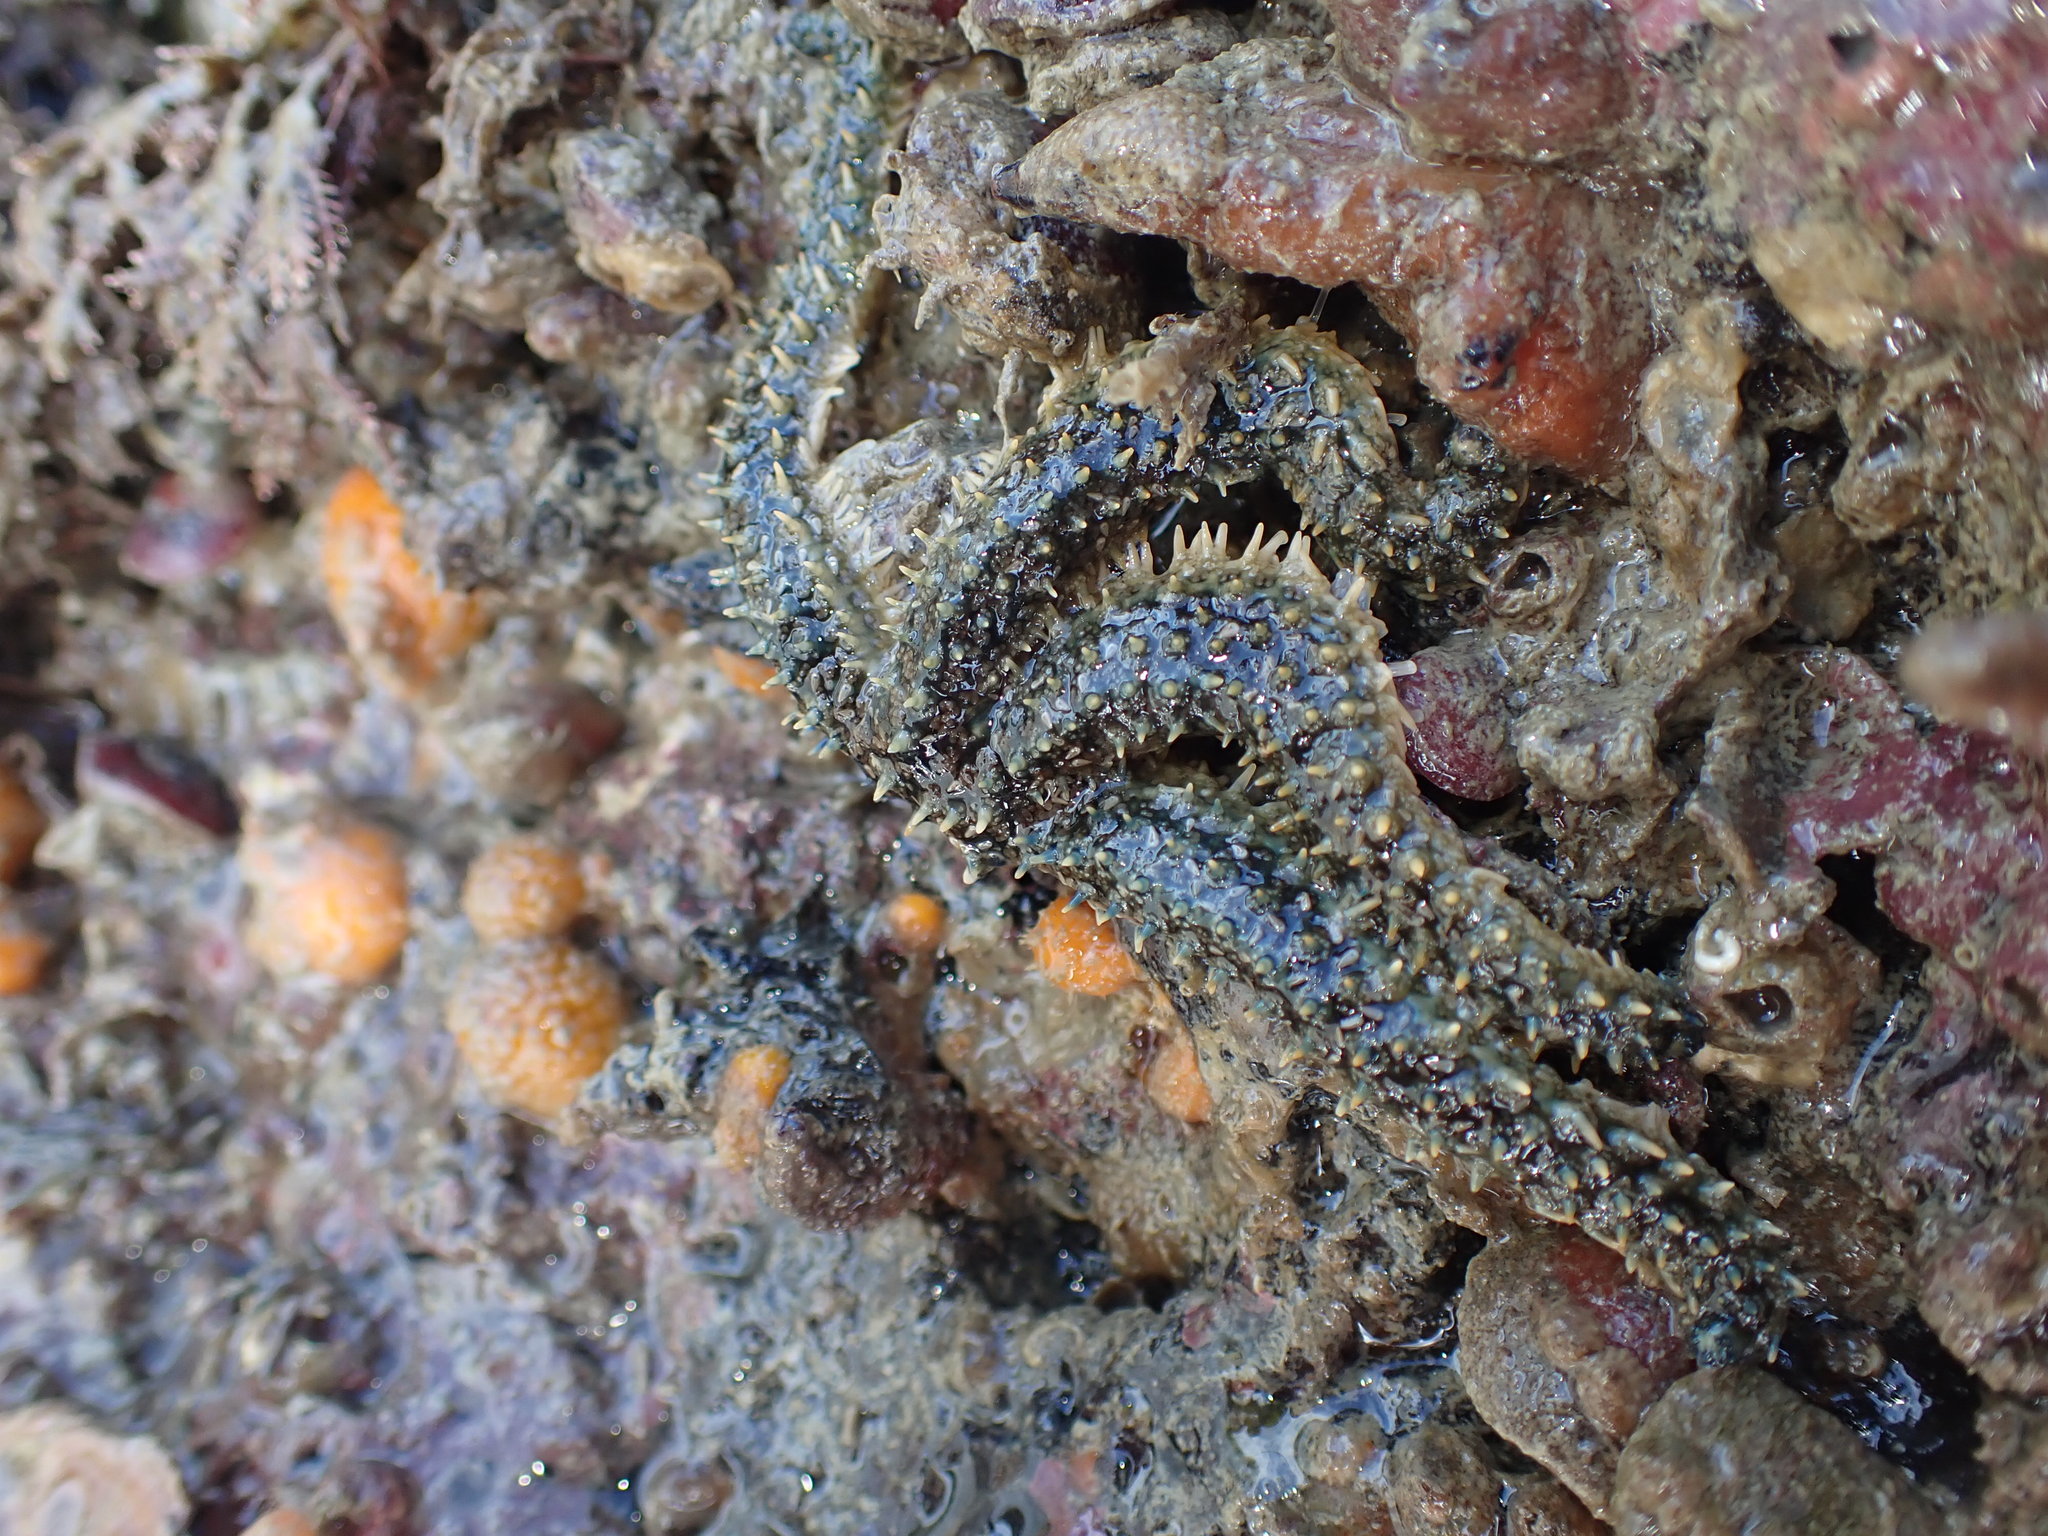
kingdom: Animalia
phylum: Echinodermata
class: Asteroidea
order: Forcipulatida
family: Asteriidae
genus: Coscinasterias
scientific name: Coscinasterias muricata
